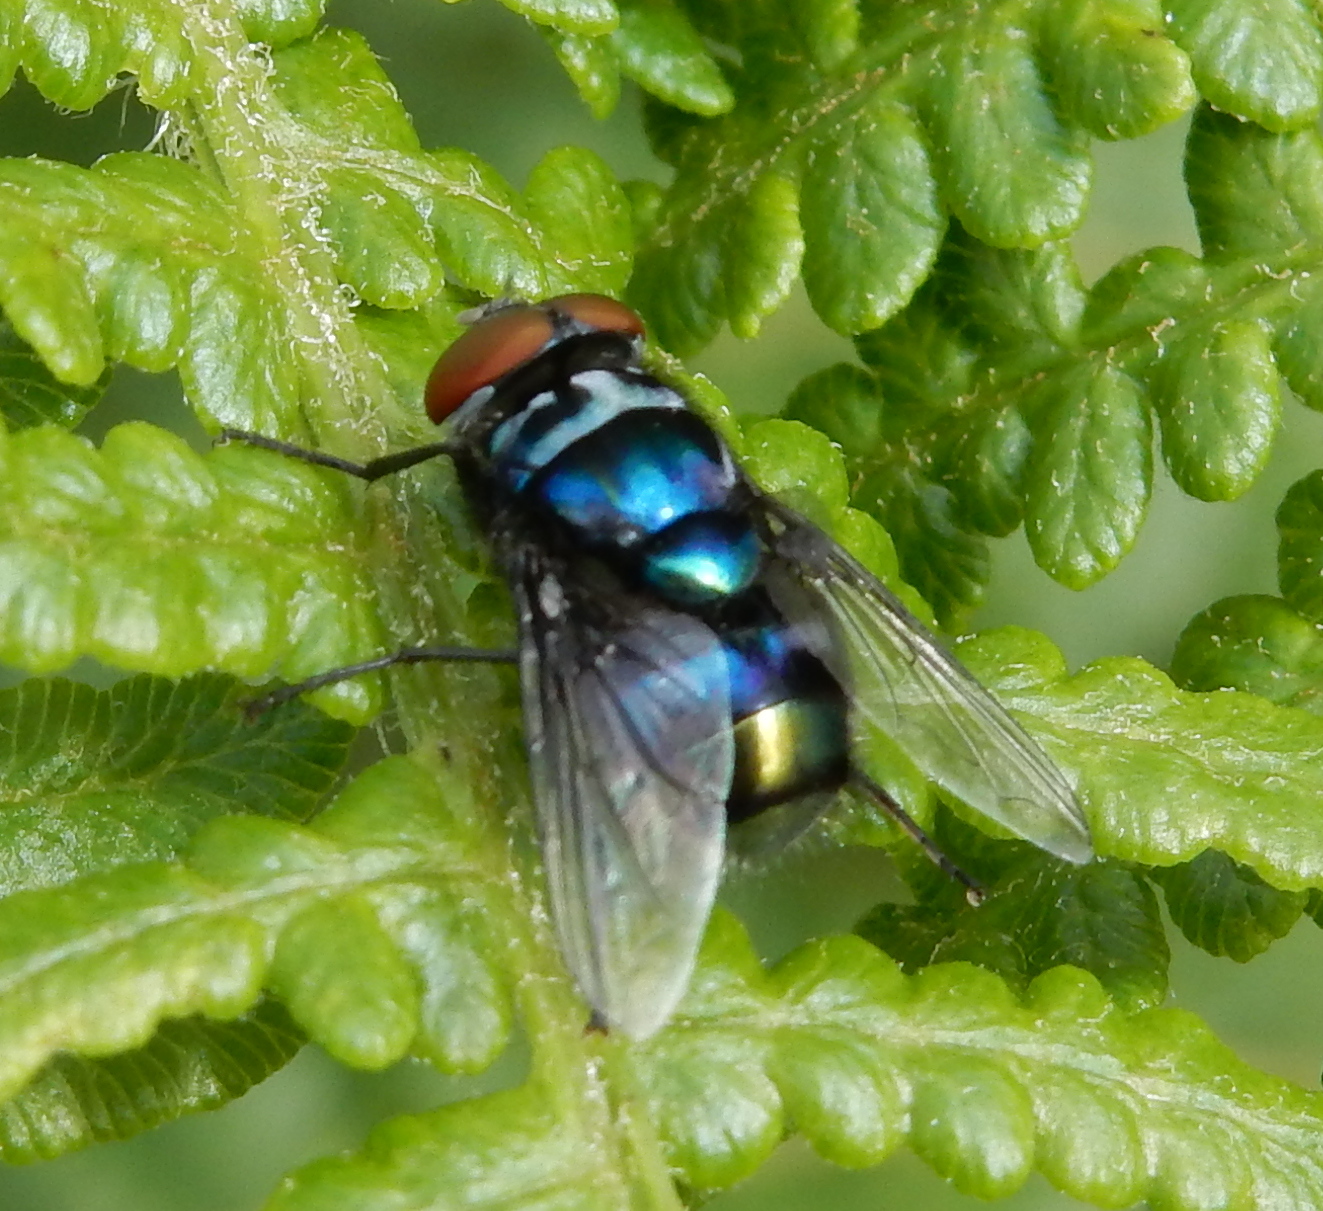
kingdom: Animalia
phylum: Arthropoda
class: Insecta
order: Diptera
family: Calliphoridae
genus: Chrysomya
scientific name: Chrysomya chloropyga
